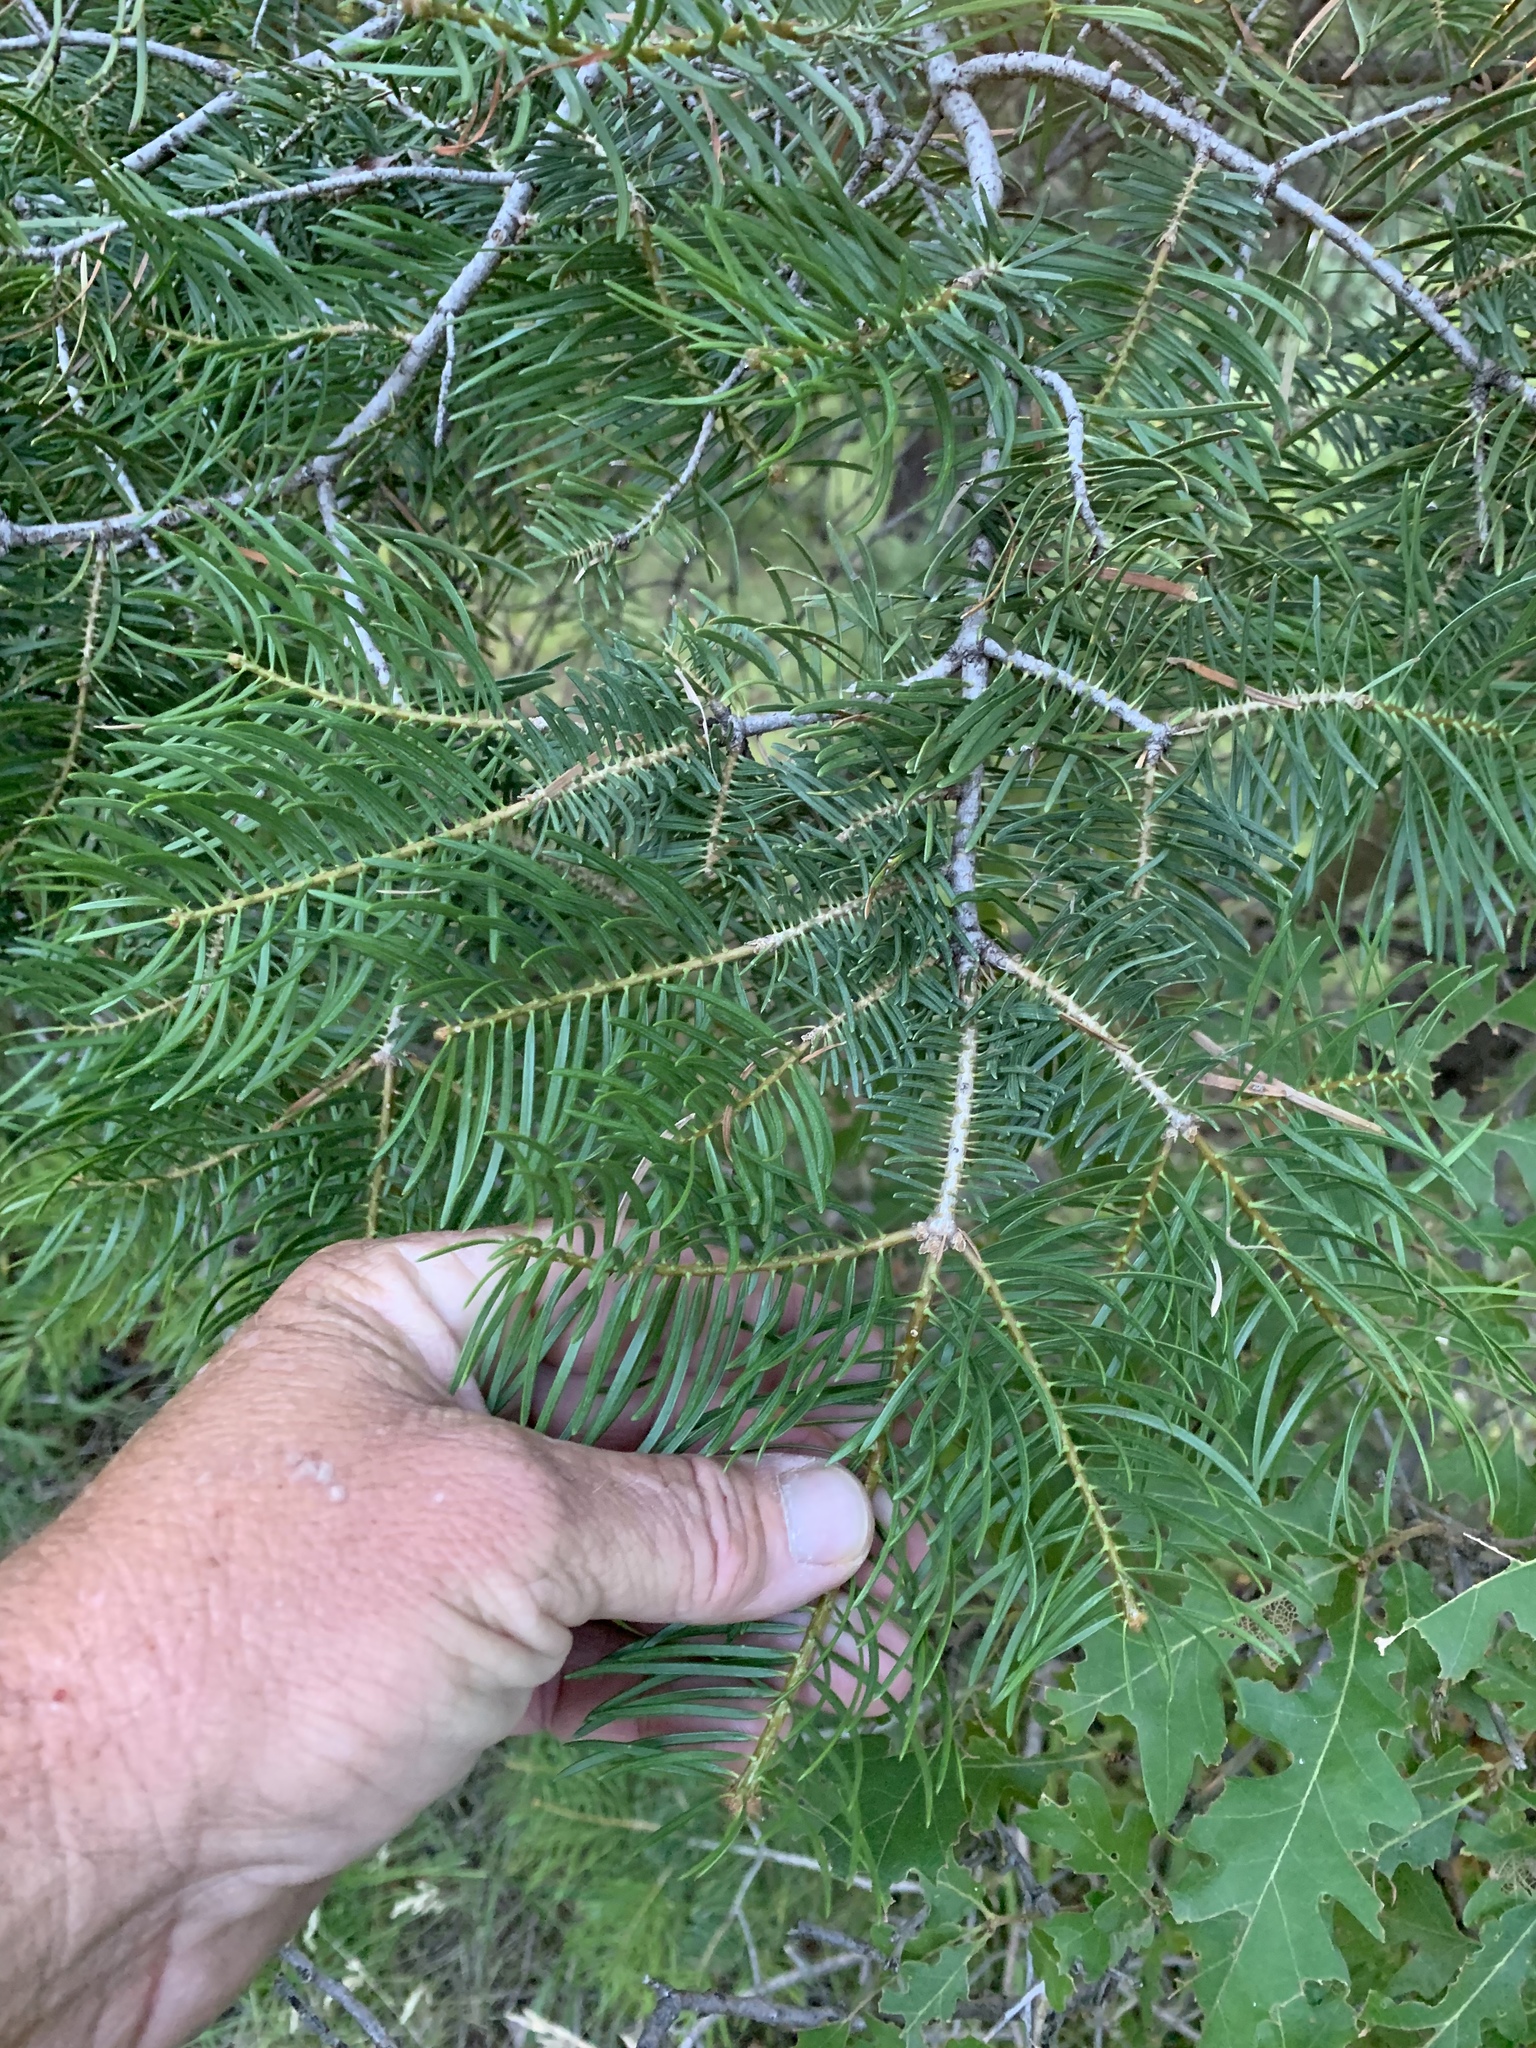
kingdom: Plantae
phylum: Tracheophyta
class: Pinopsida
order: Pinales
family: Pinaceae
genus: Abies
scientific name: Abies concolor
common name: Colorado fir
